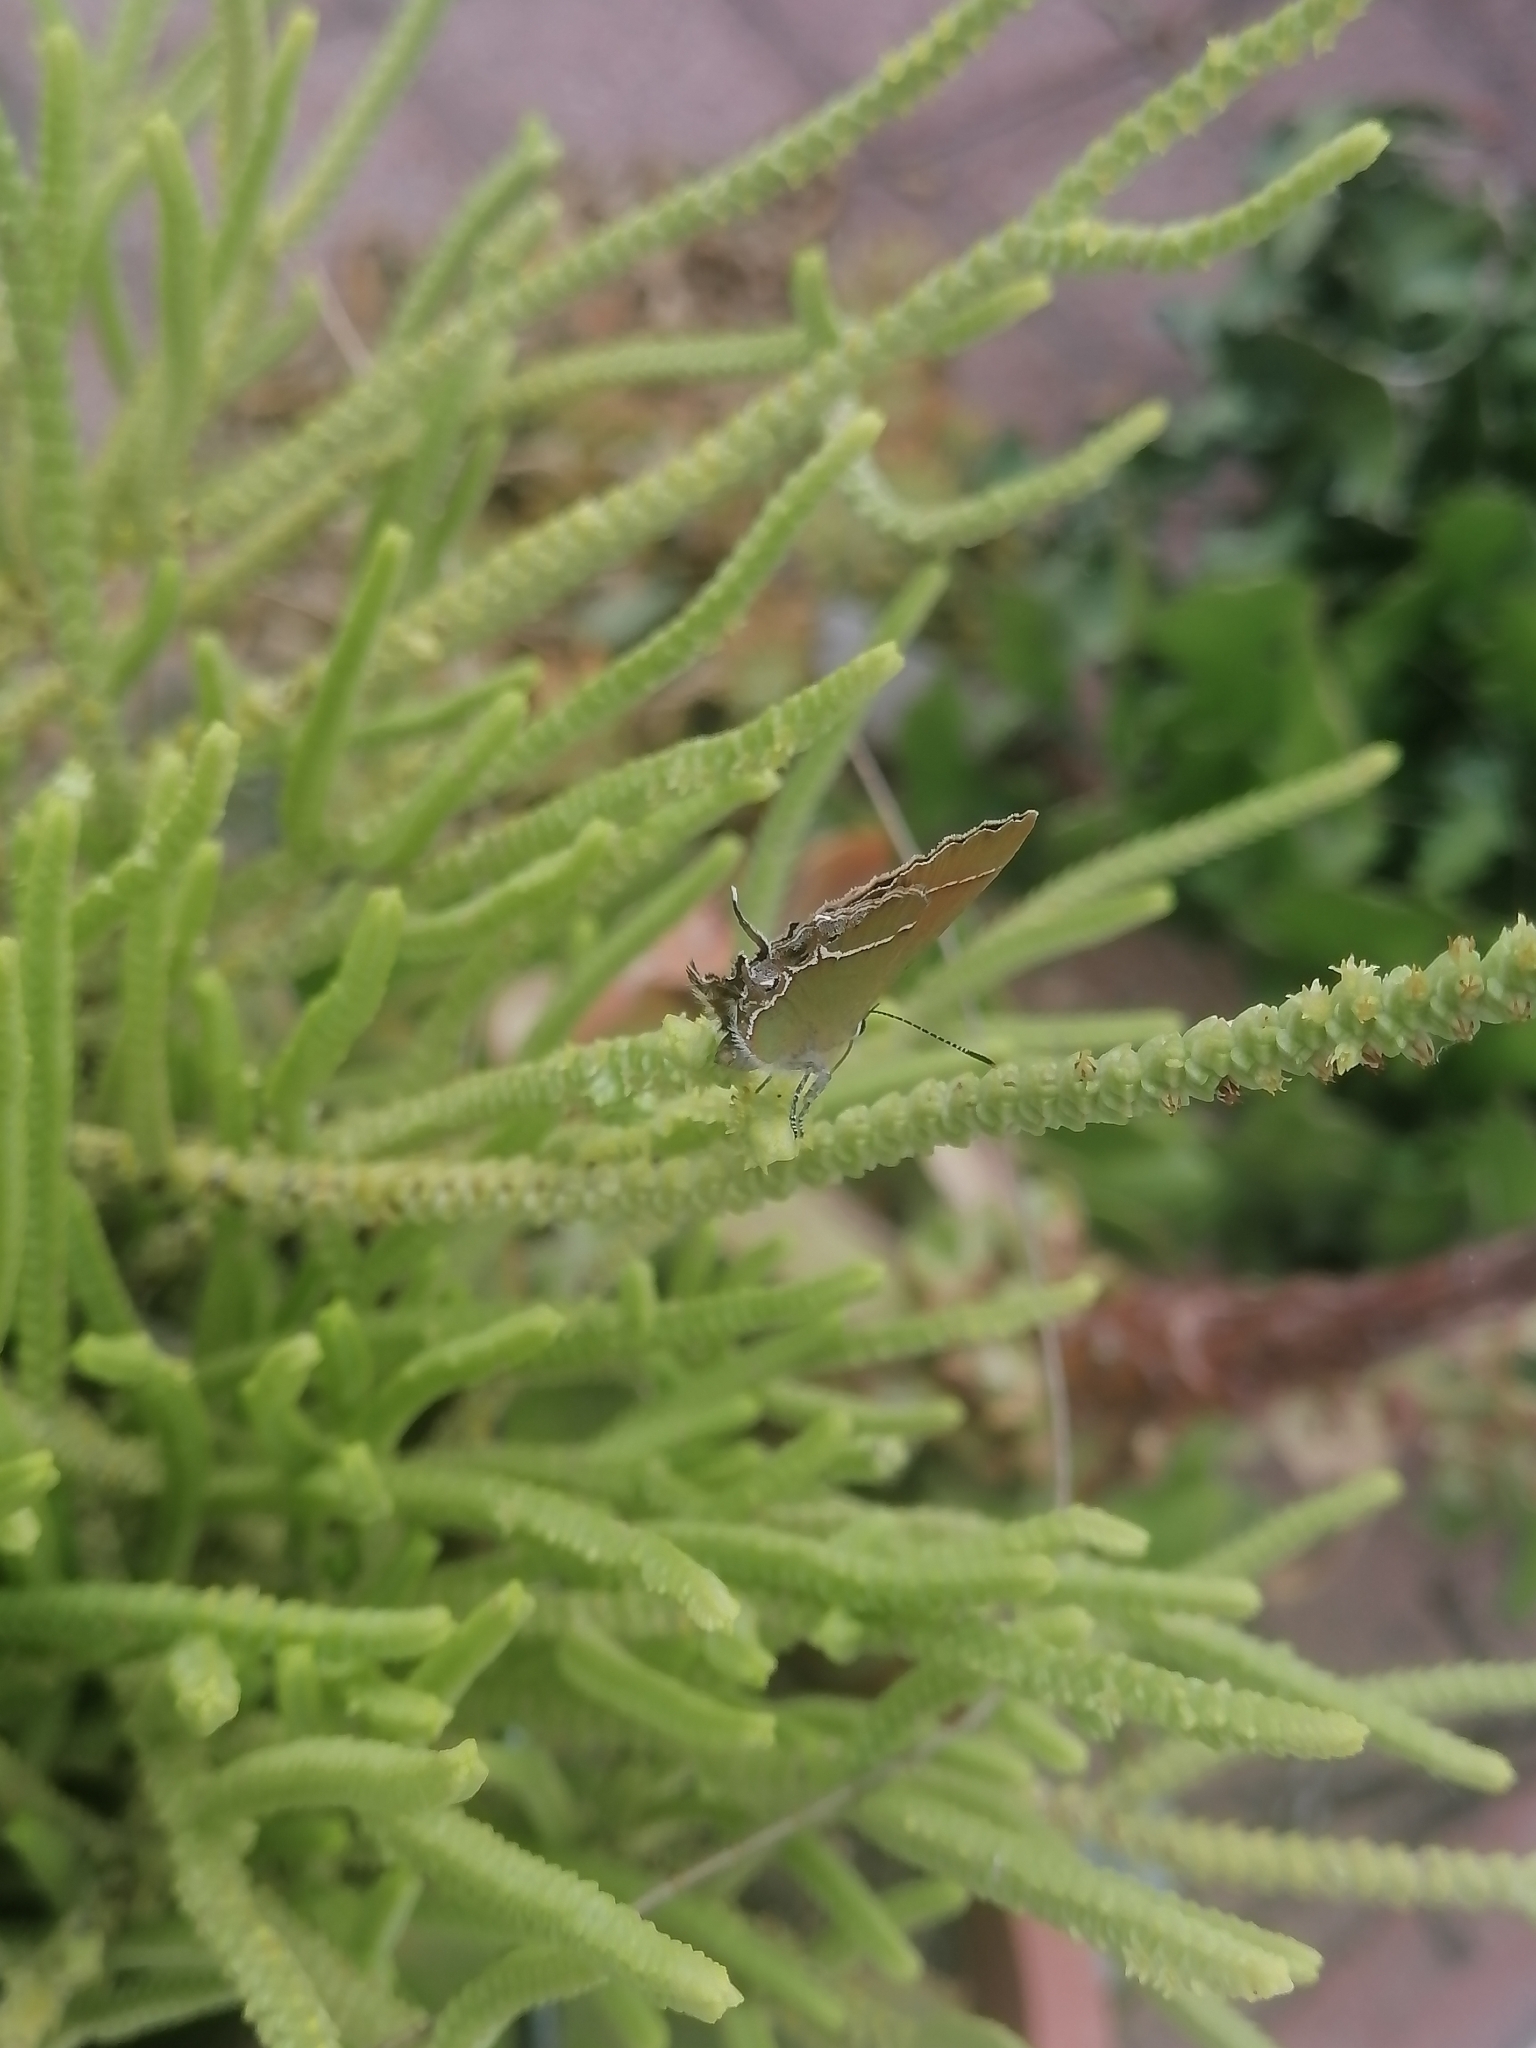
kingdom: Animalia
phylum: Arthropoda
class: Insecta
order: Lepidoptera
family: Lycaenidae
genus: Xamia
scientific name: Xamia xami
